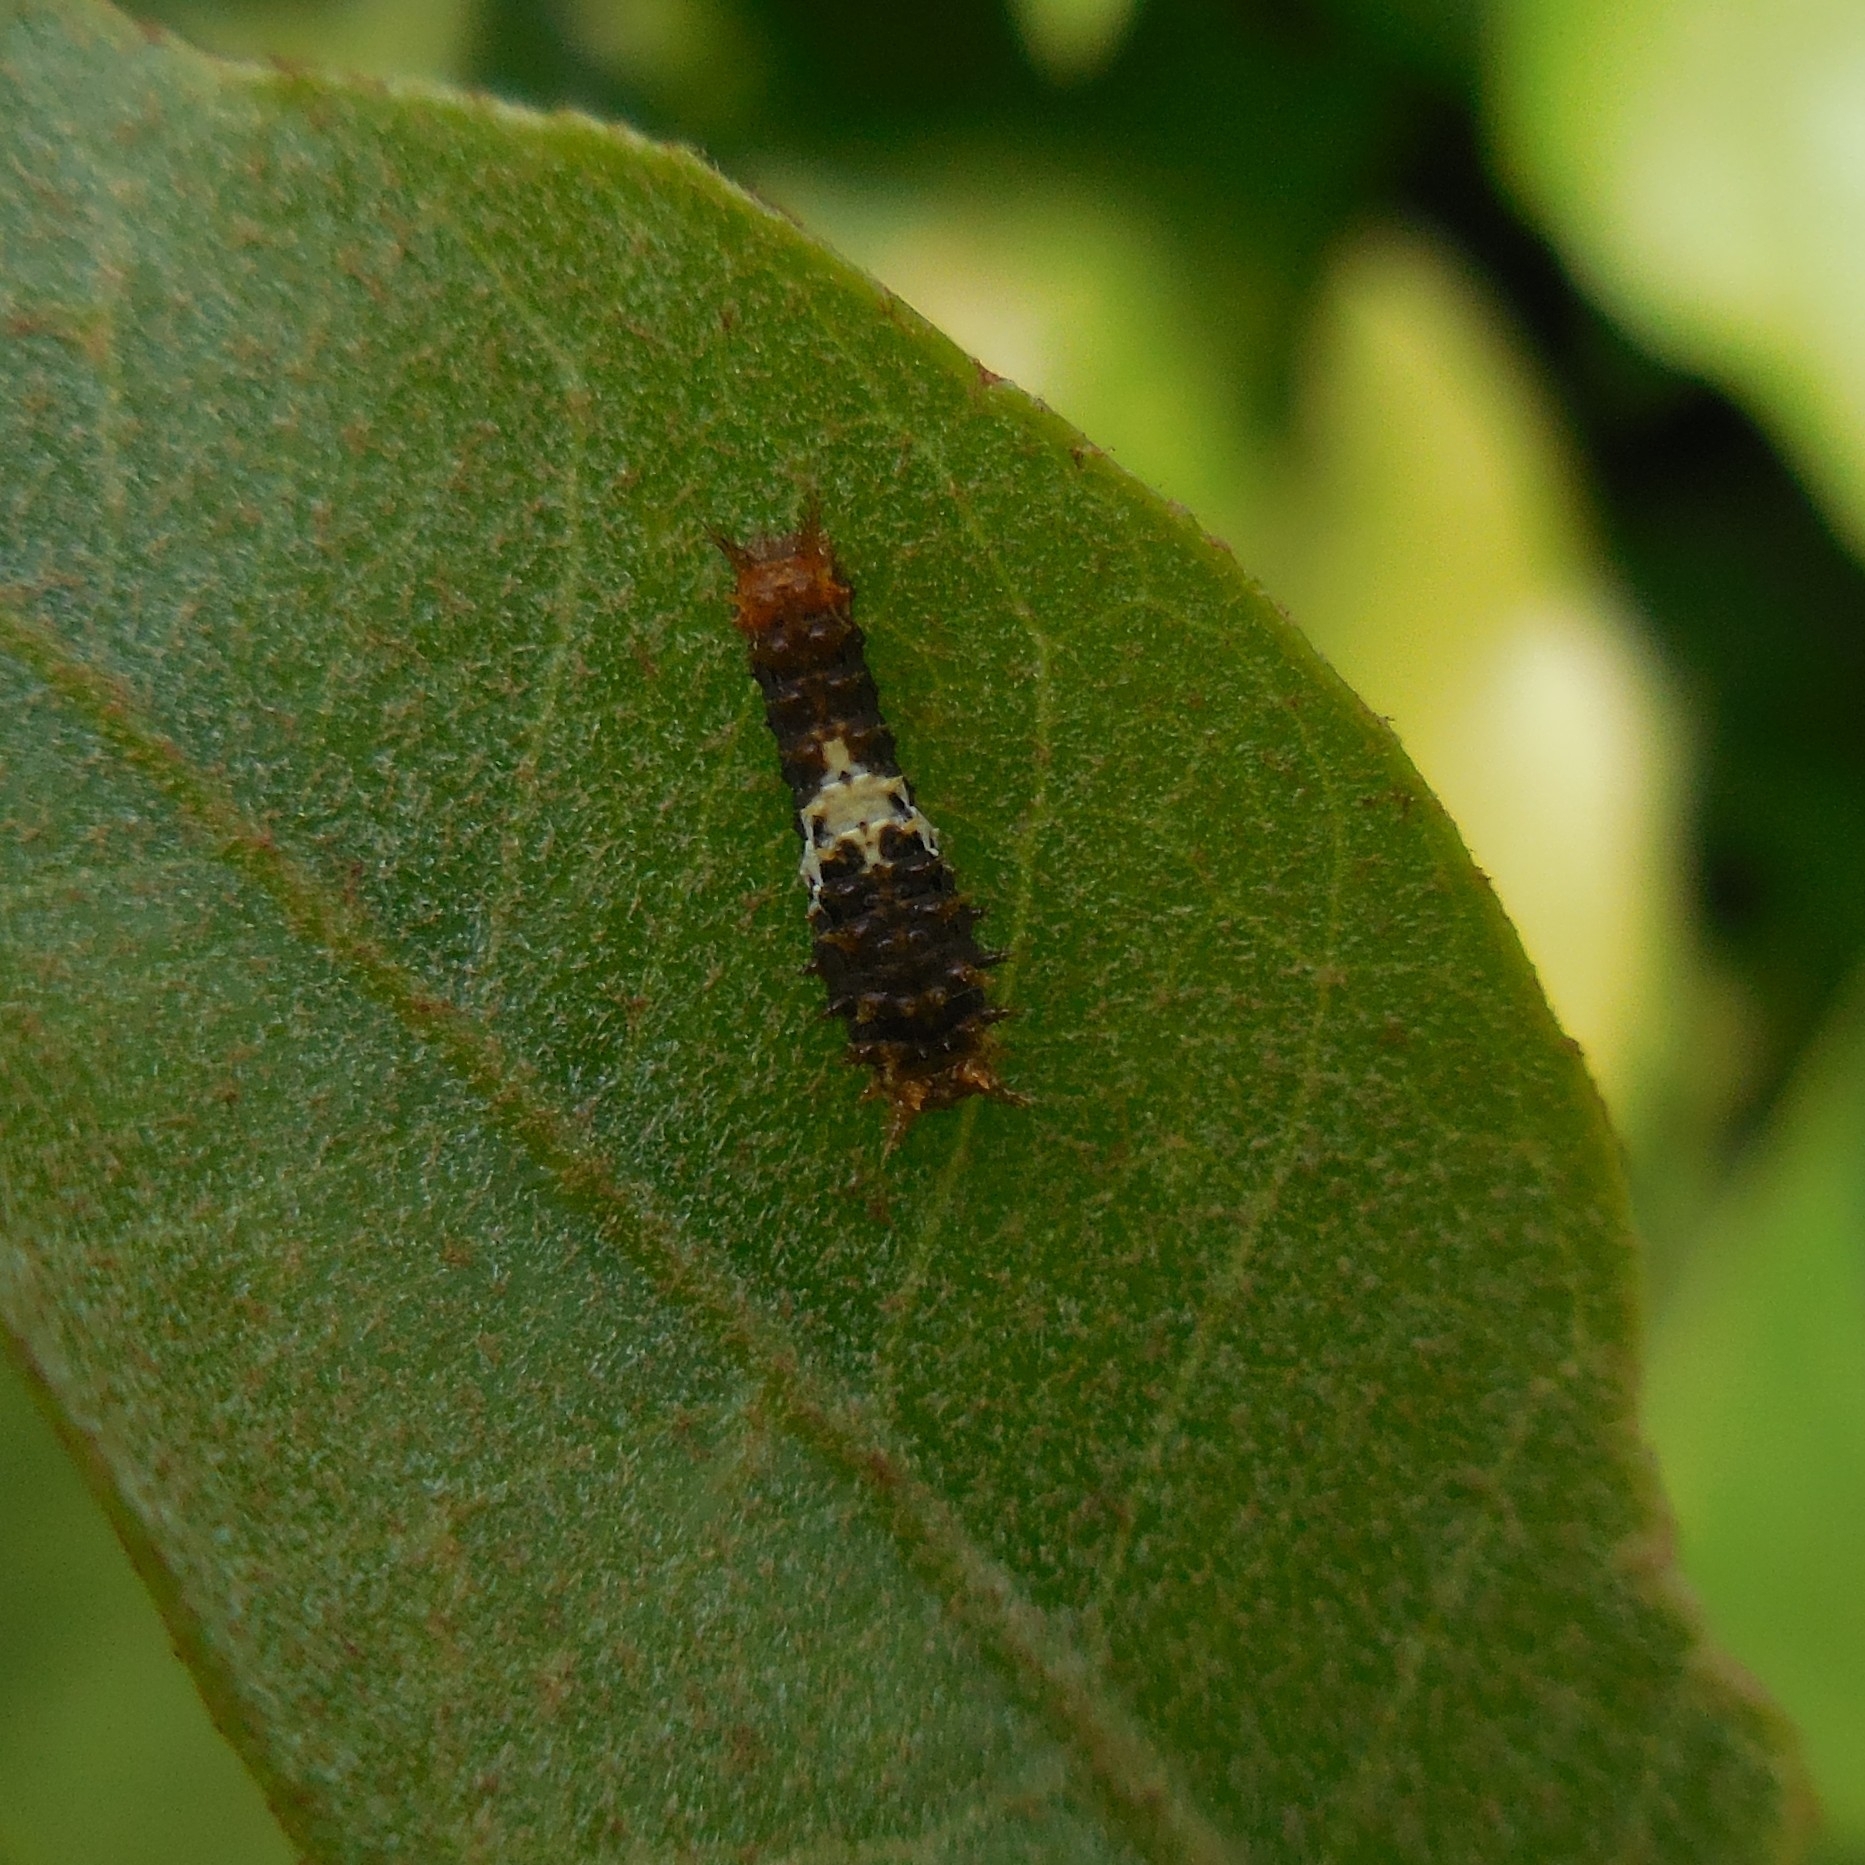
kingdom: Animalia
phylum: Arthropoda
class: Insecta
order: Lepidoptera
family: Papilionidae
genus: Papilio
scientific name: Papilio demoleus
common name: Lime butterfly
